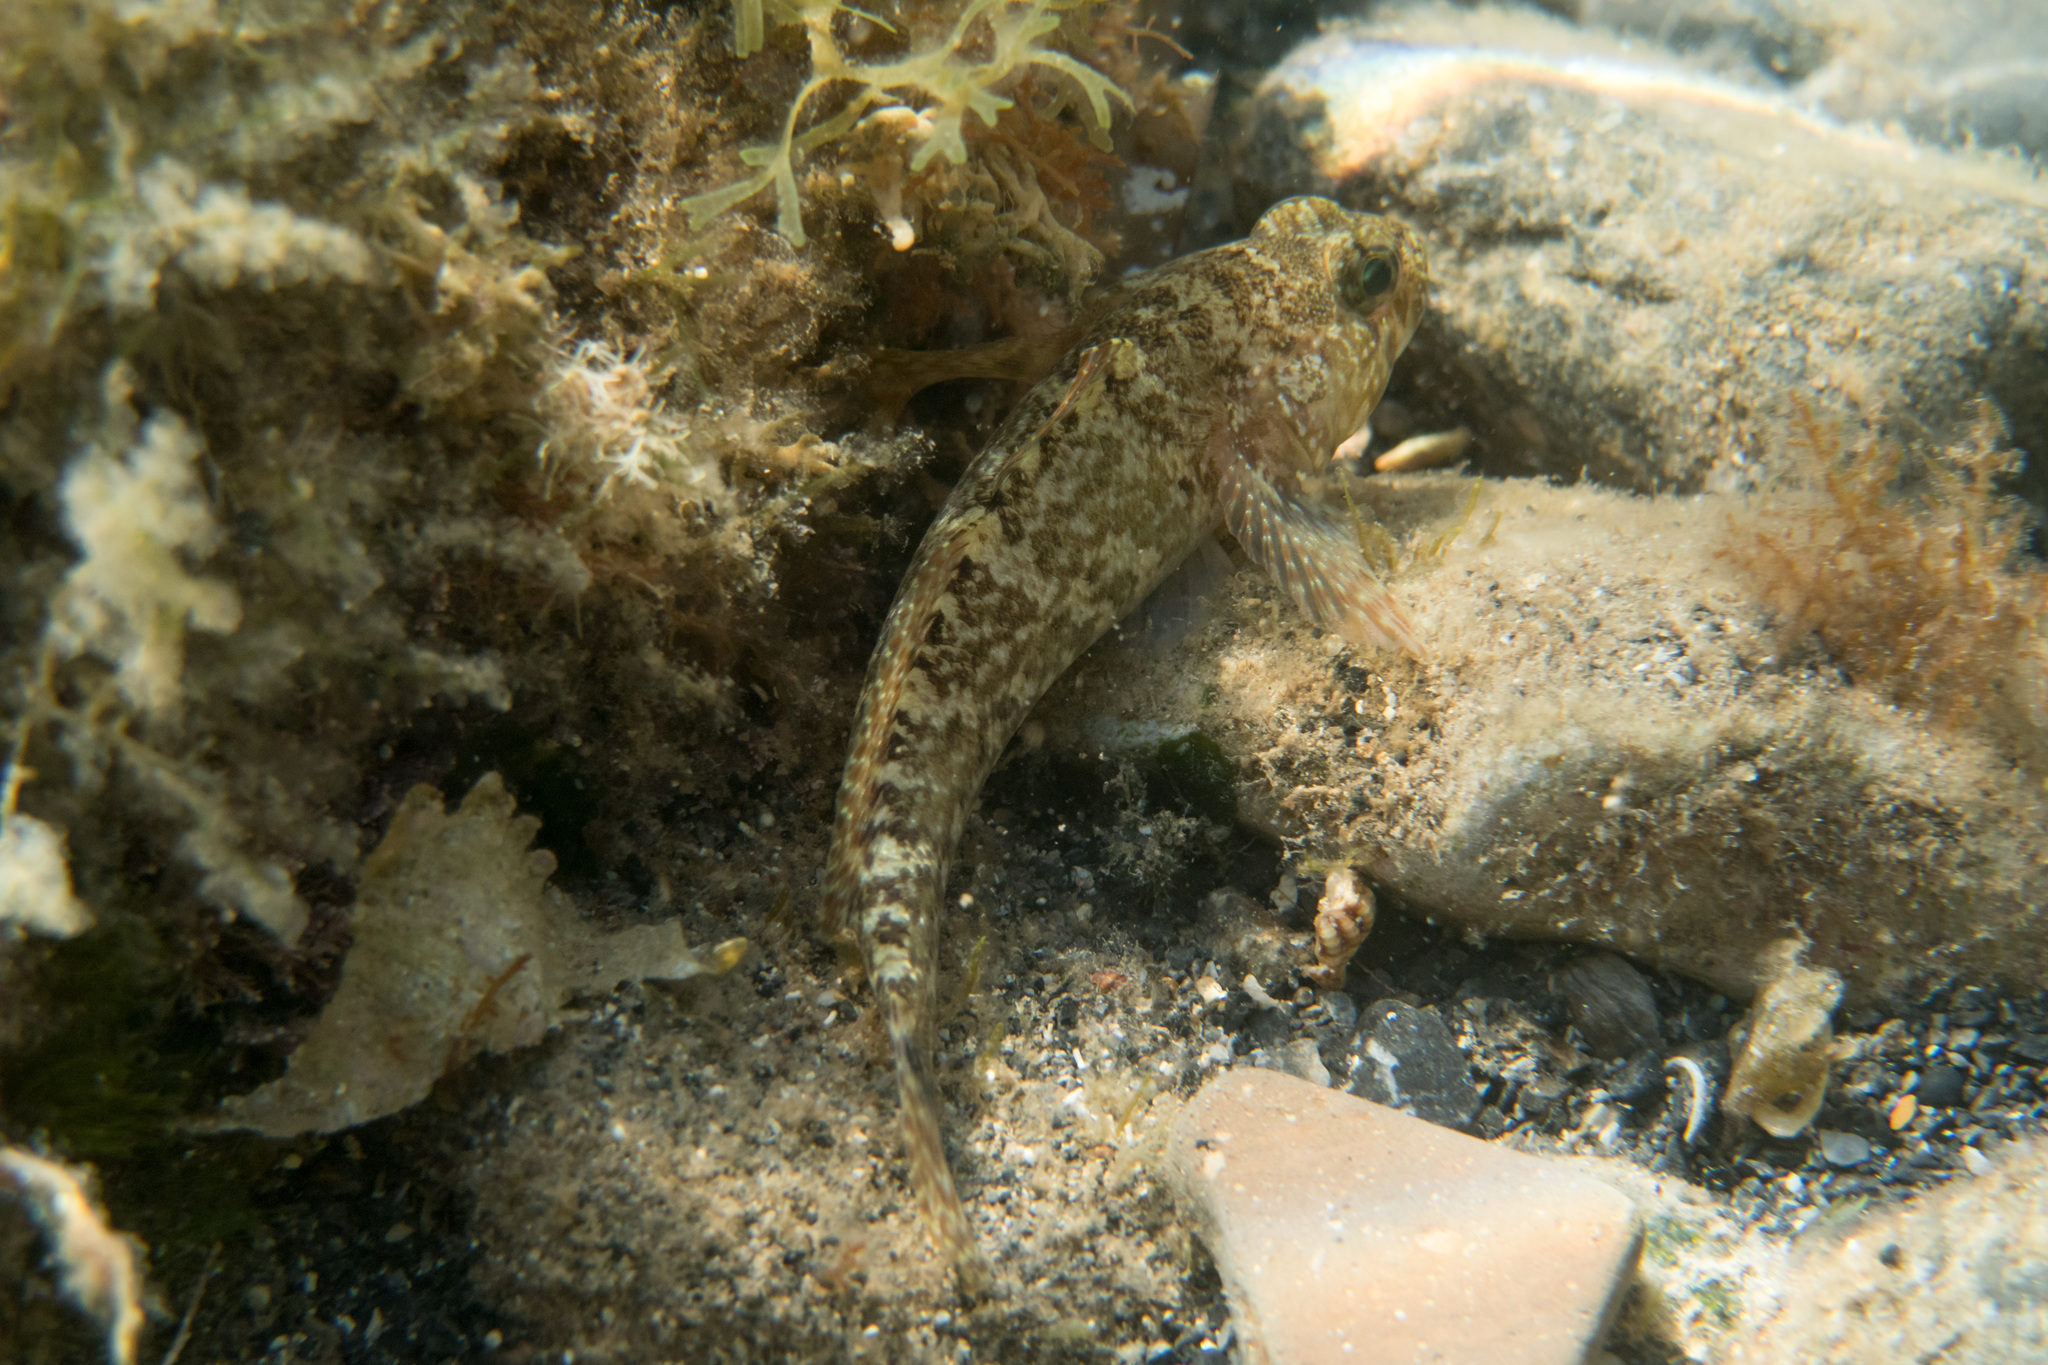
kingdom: Animalia
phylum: Chordata
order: Perciformes
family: Gobiidae
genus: Gobius
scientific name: Gobius paganellus
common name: Rock goby
